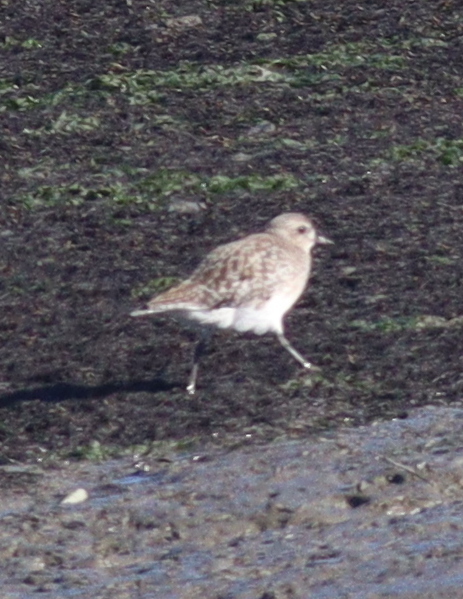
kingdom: Animalia
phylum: Chordata
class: Aves
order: Charadriiformes
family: Charadriidae
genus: Pluvialis
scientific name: Pluvialis squatarola
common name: Grey plover
